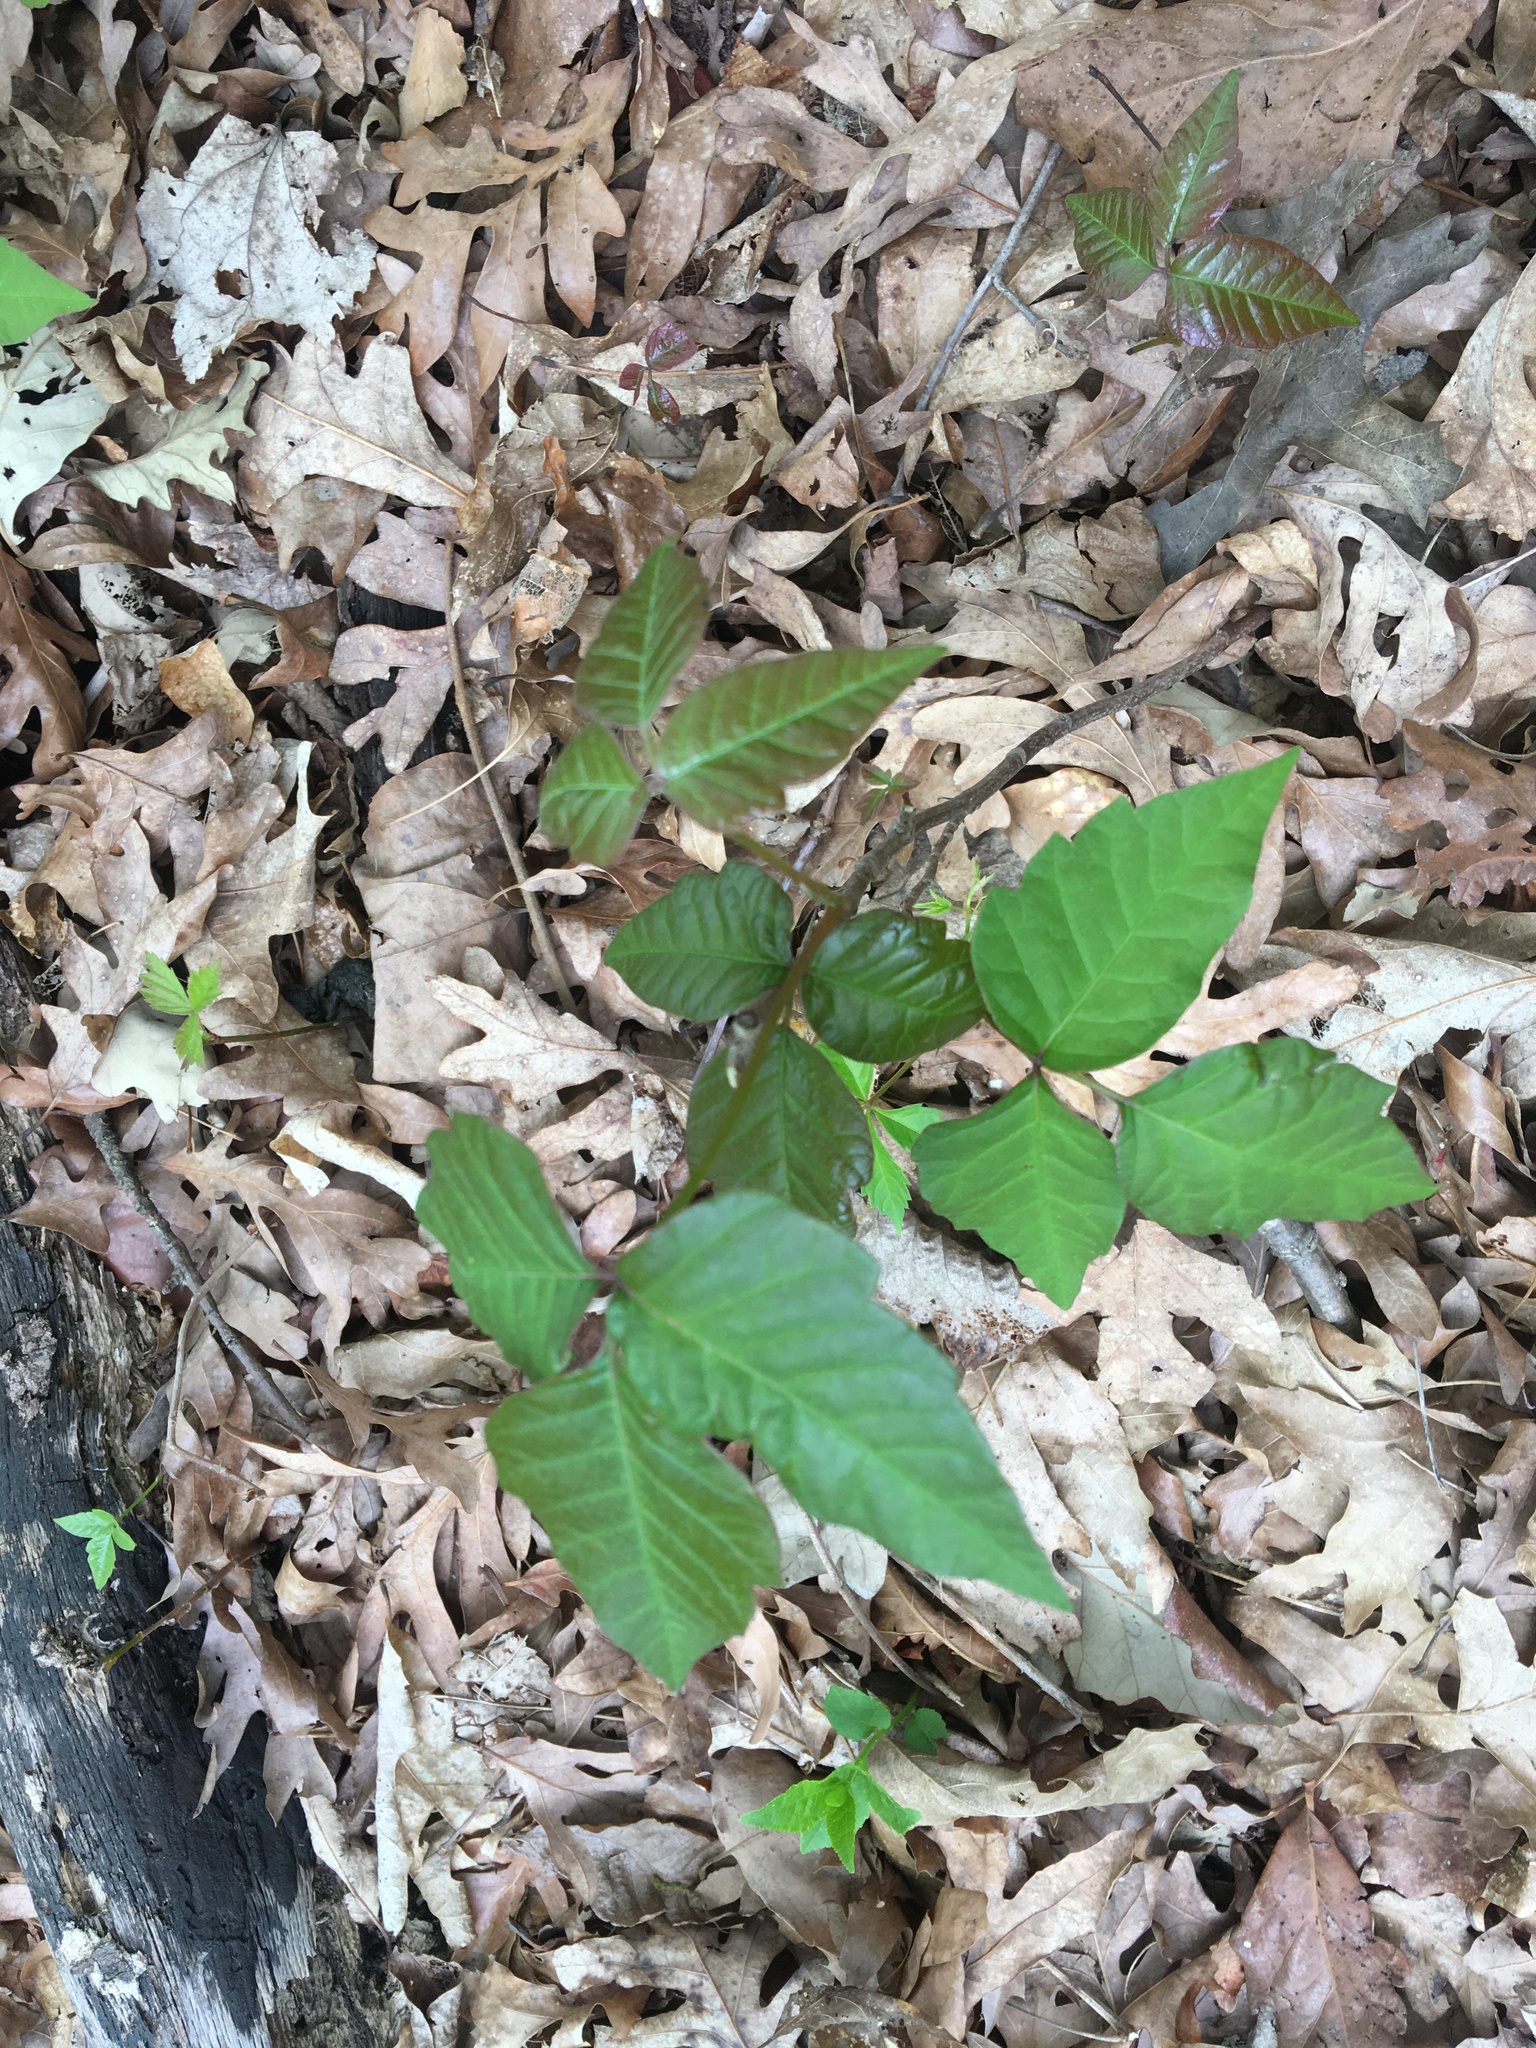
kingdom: Plantae
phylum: Tracheophyta
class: Magnoliopsida
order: Sapindales
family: Anacardiaceae
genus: Toxicodendron
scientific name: Toxicodendron radicans
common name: Poison ivy
